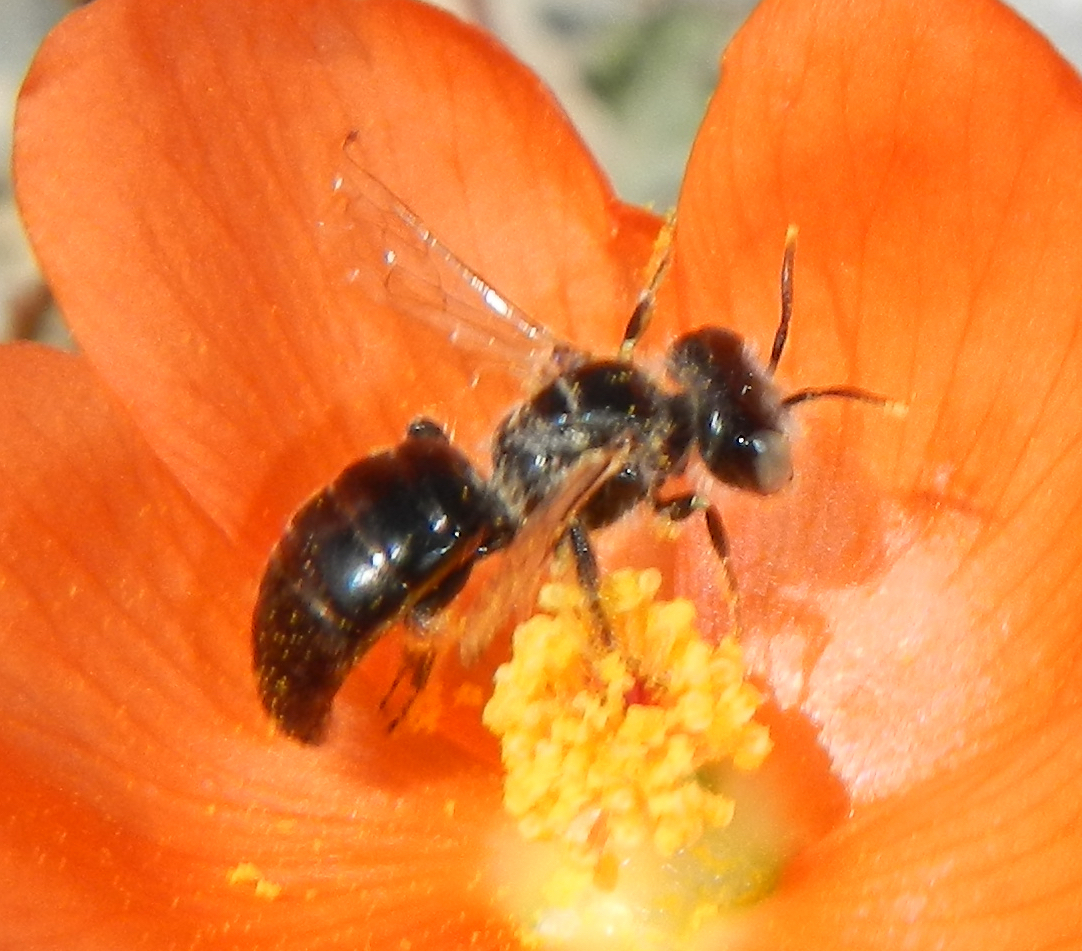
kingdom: Animalia
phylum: Arthropoda
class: Insecta
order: Hymenoptera
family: Andrenidae
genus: Calliopsis
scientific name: Calliopsis subalpina
